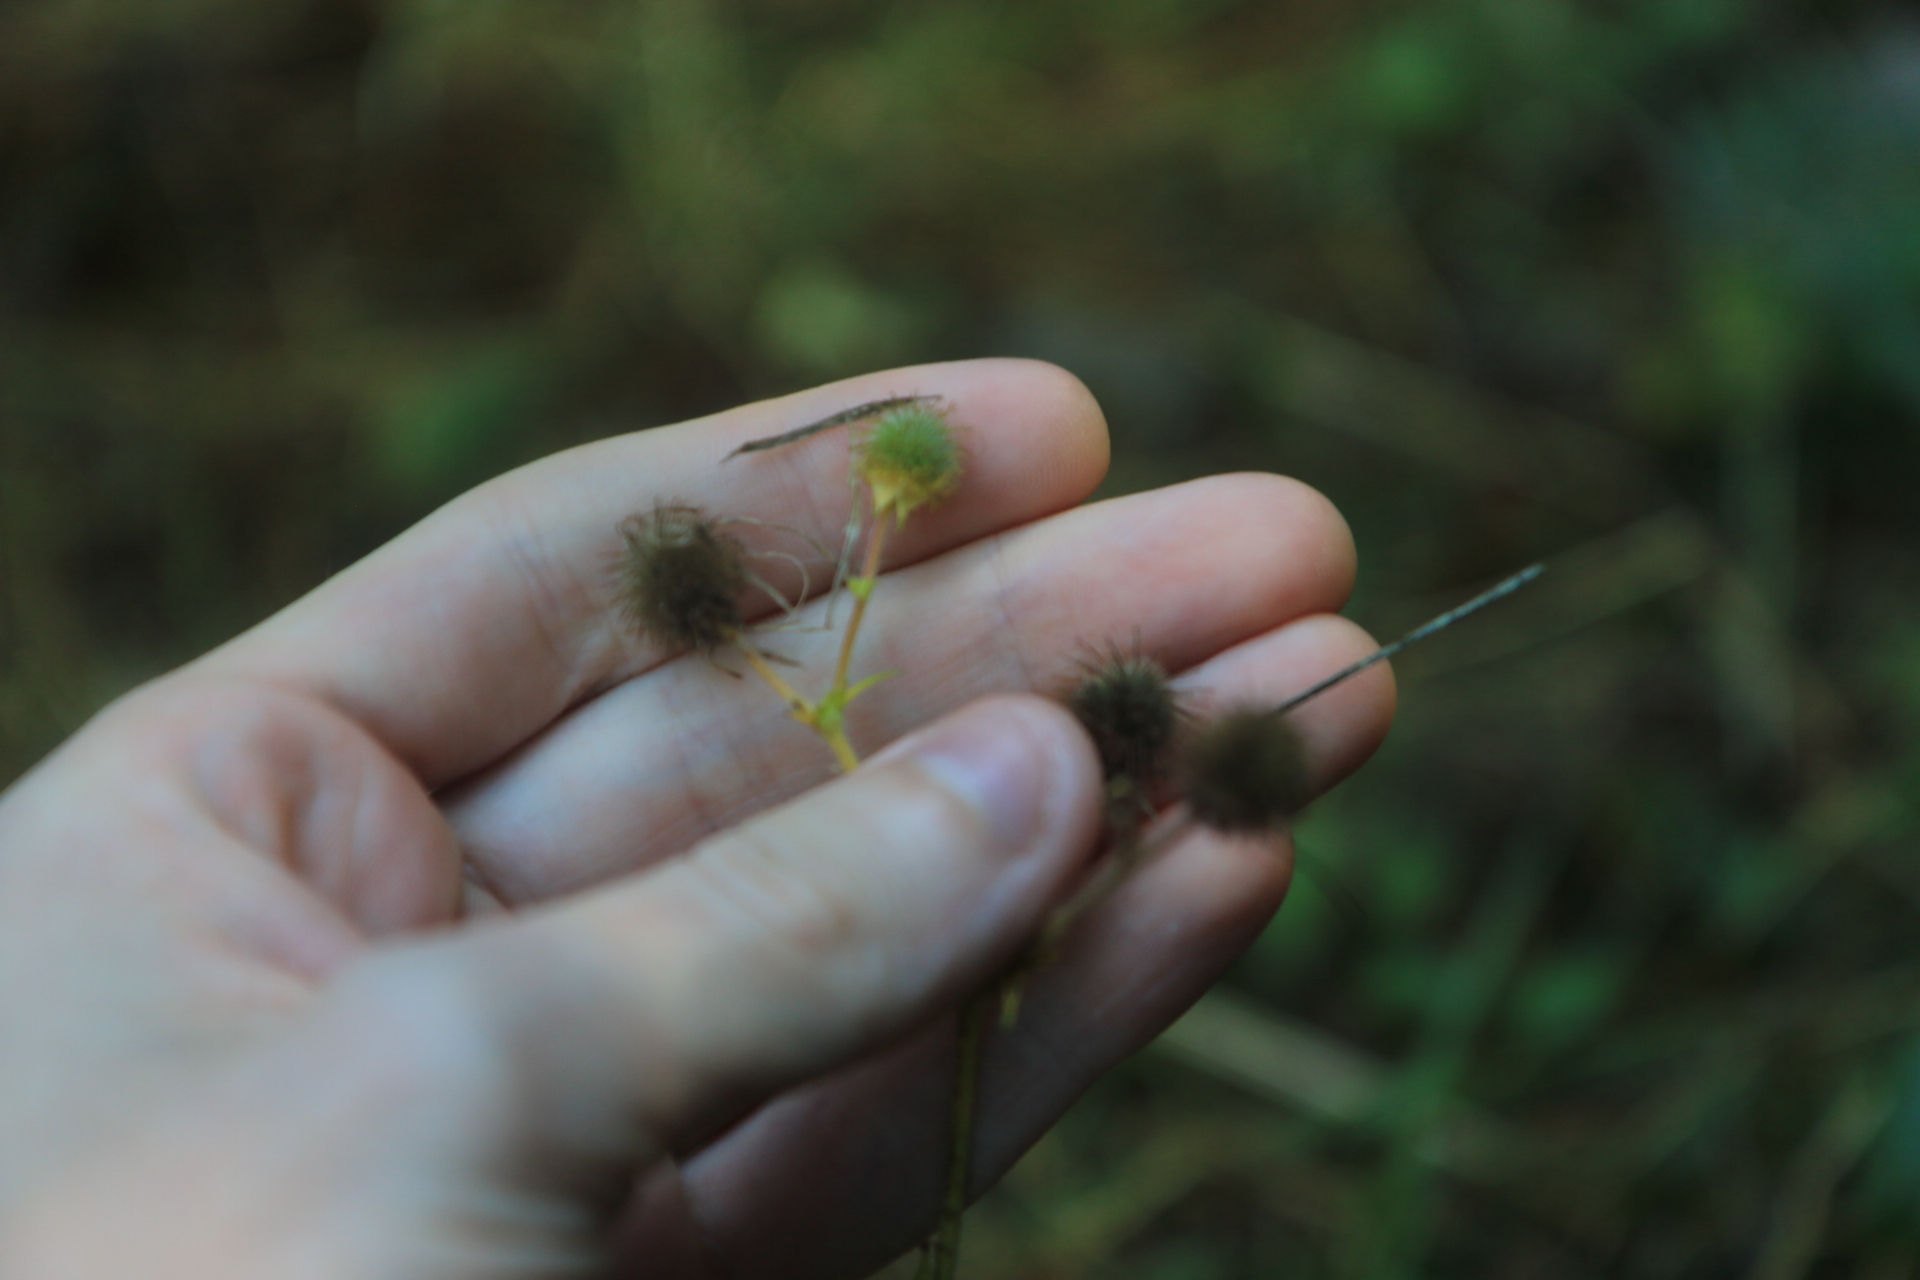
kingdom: Plantae
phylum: Tracheophyta
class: Magnoliopsida
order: Rosales
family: Rosaceae
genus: Geum
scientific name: Geum macrophyllum
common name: Large-leaved avens
